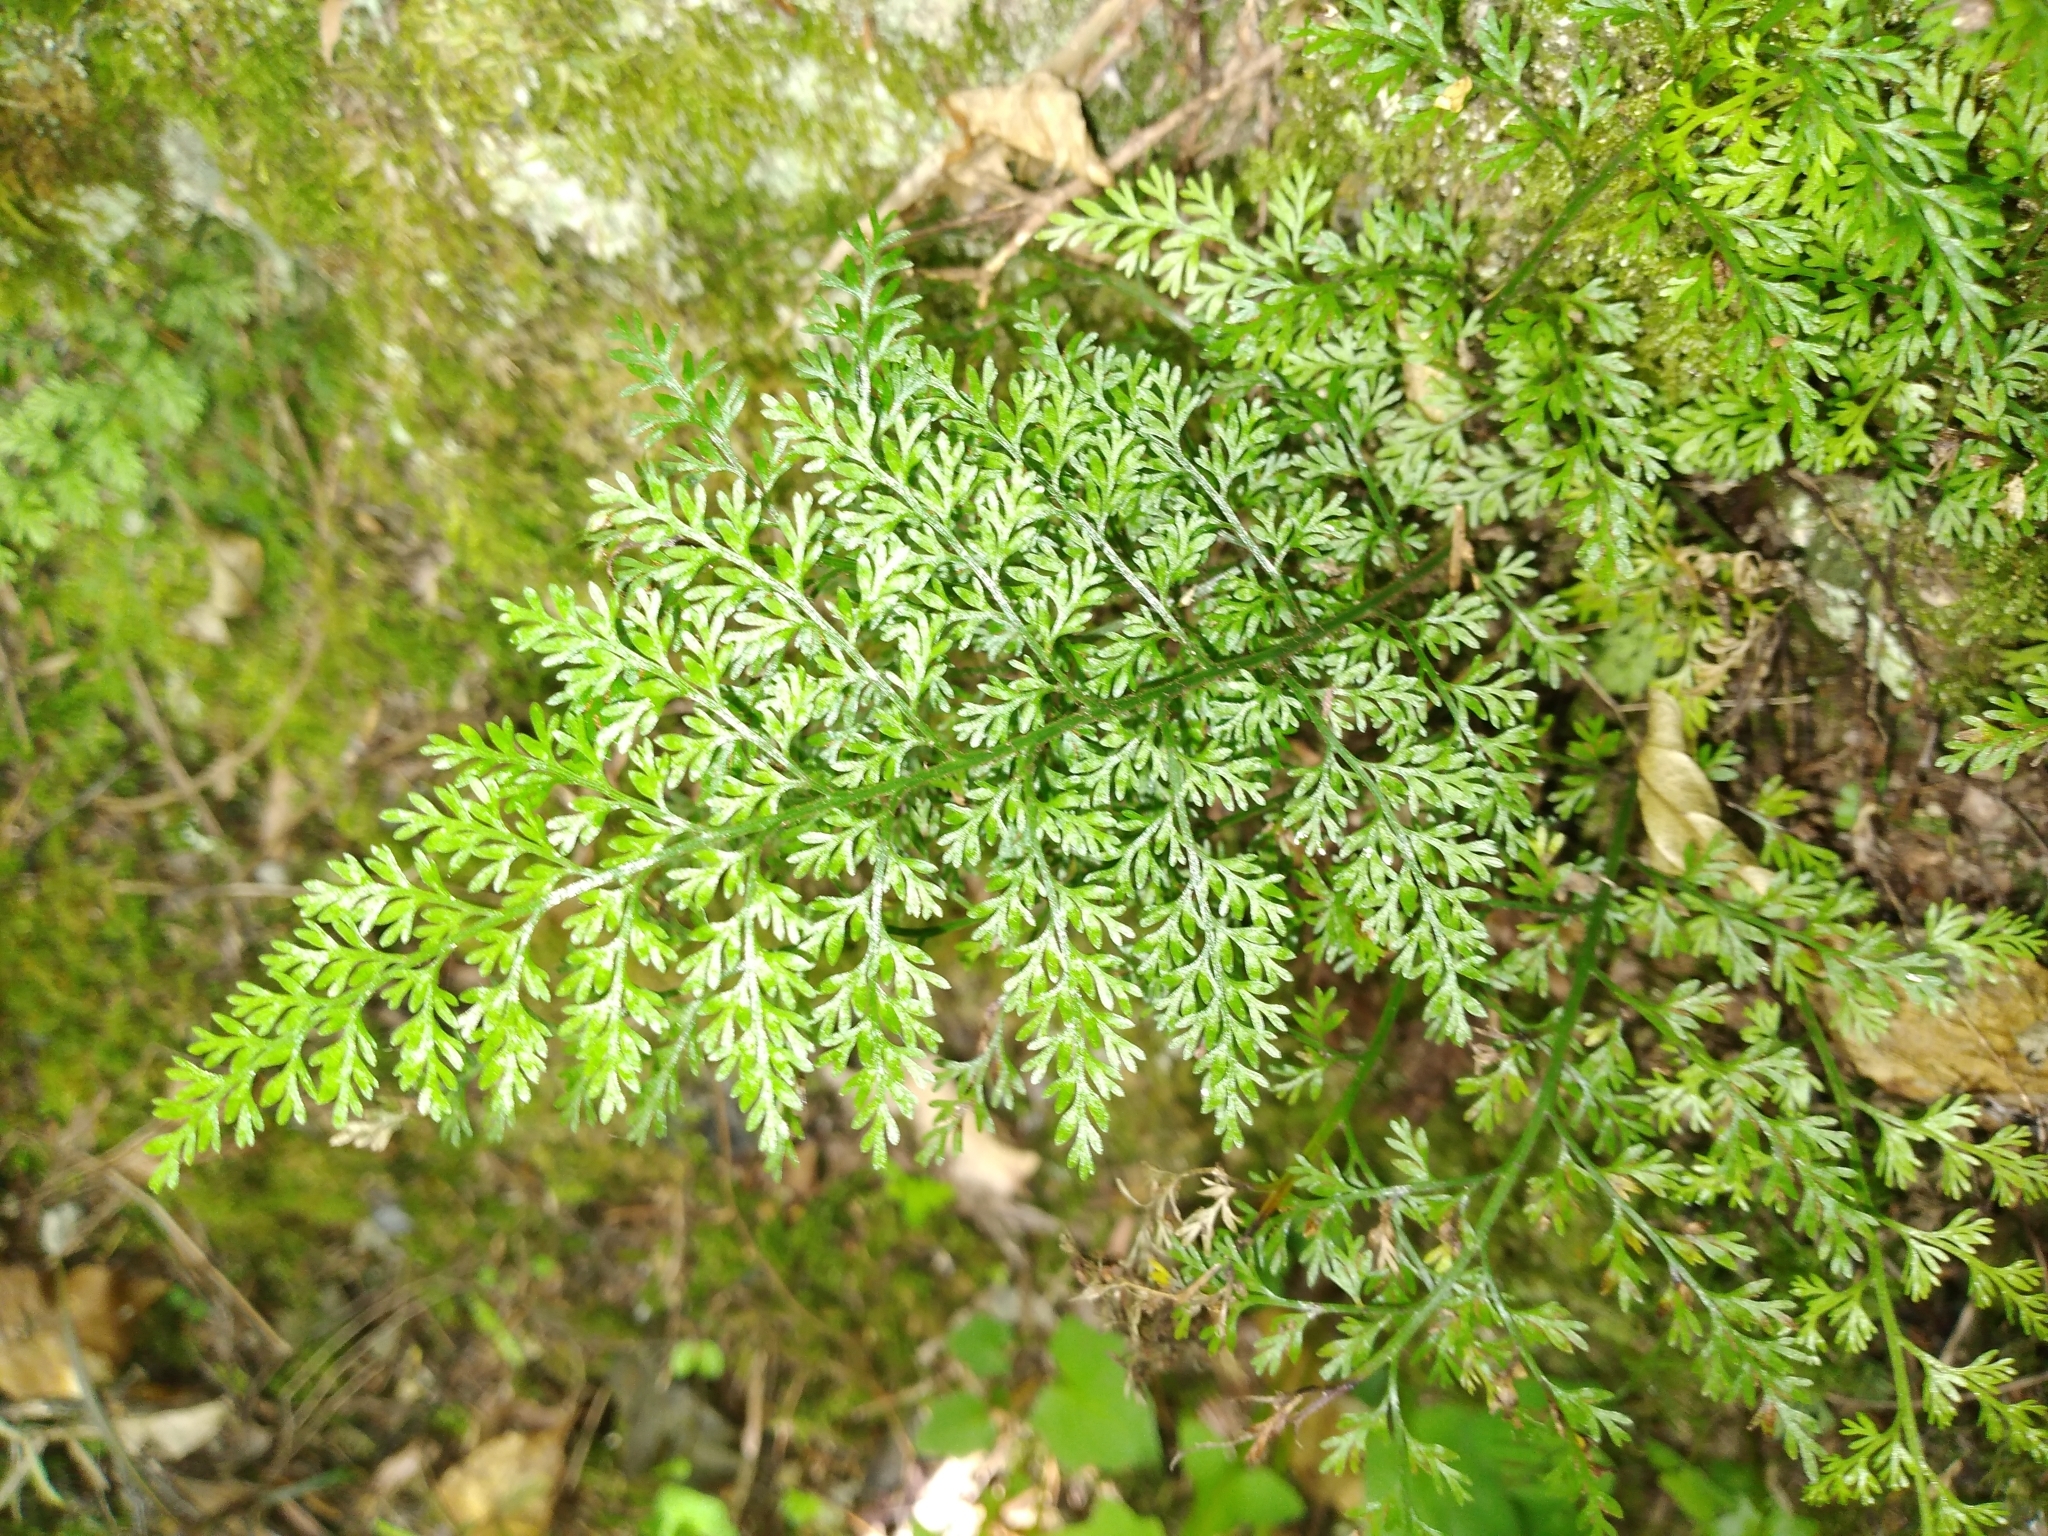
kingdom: Plantae
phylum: Tracheophyta
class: Polypodiopsida
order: Polypodiales
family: Aspleniaceae
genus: Asplenium
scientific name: Asplenium hookerianum
